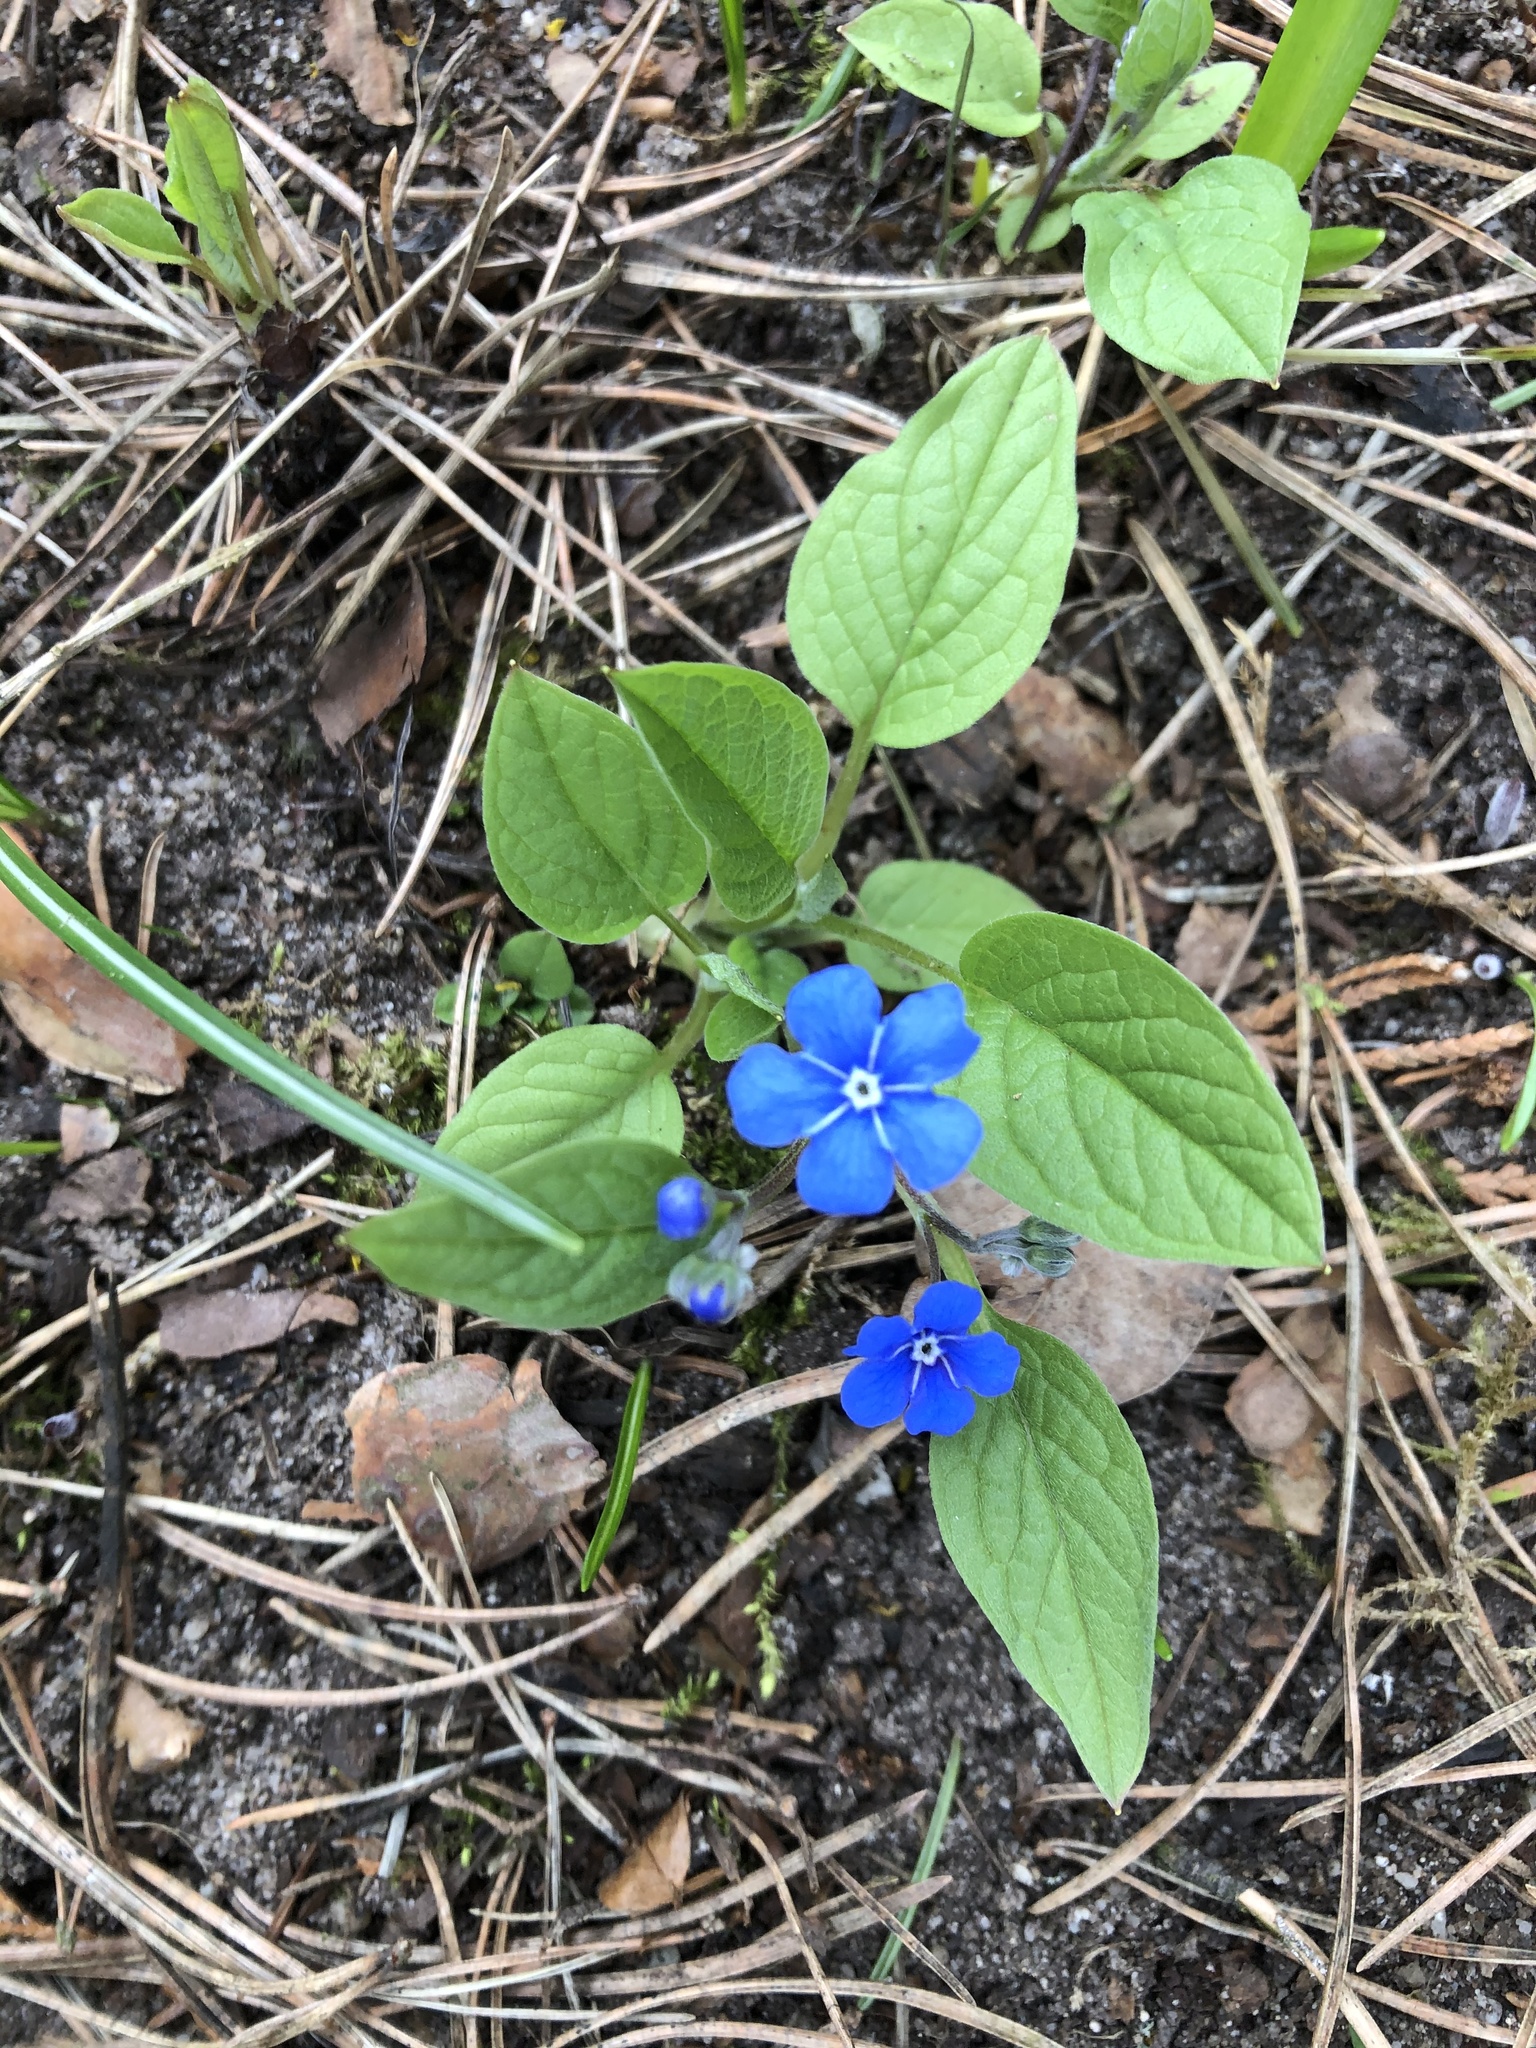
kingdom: Plantae
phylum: Tracheophyta
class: Magnoliopsida
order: Boraginales
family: Boraginaceae
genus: Omphalodes
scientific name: Omphalodes verna
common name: Blue-eyed-mary
